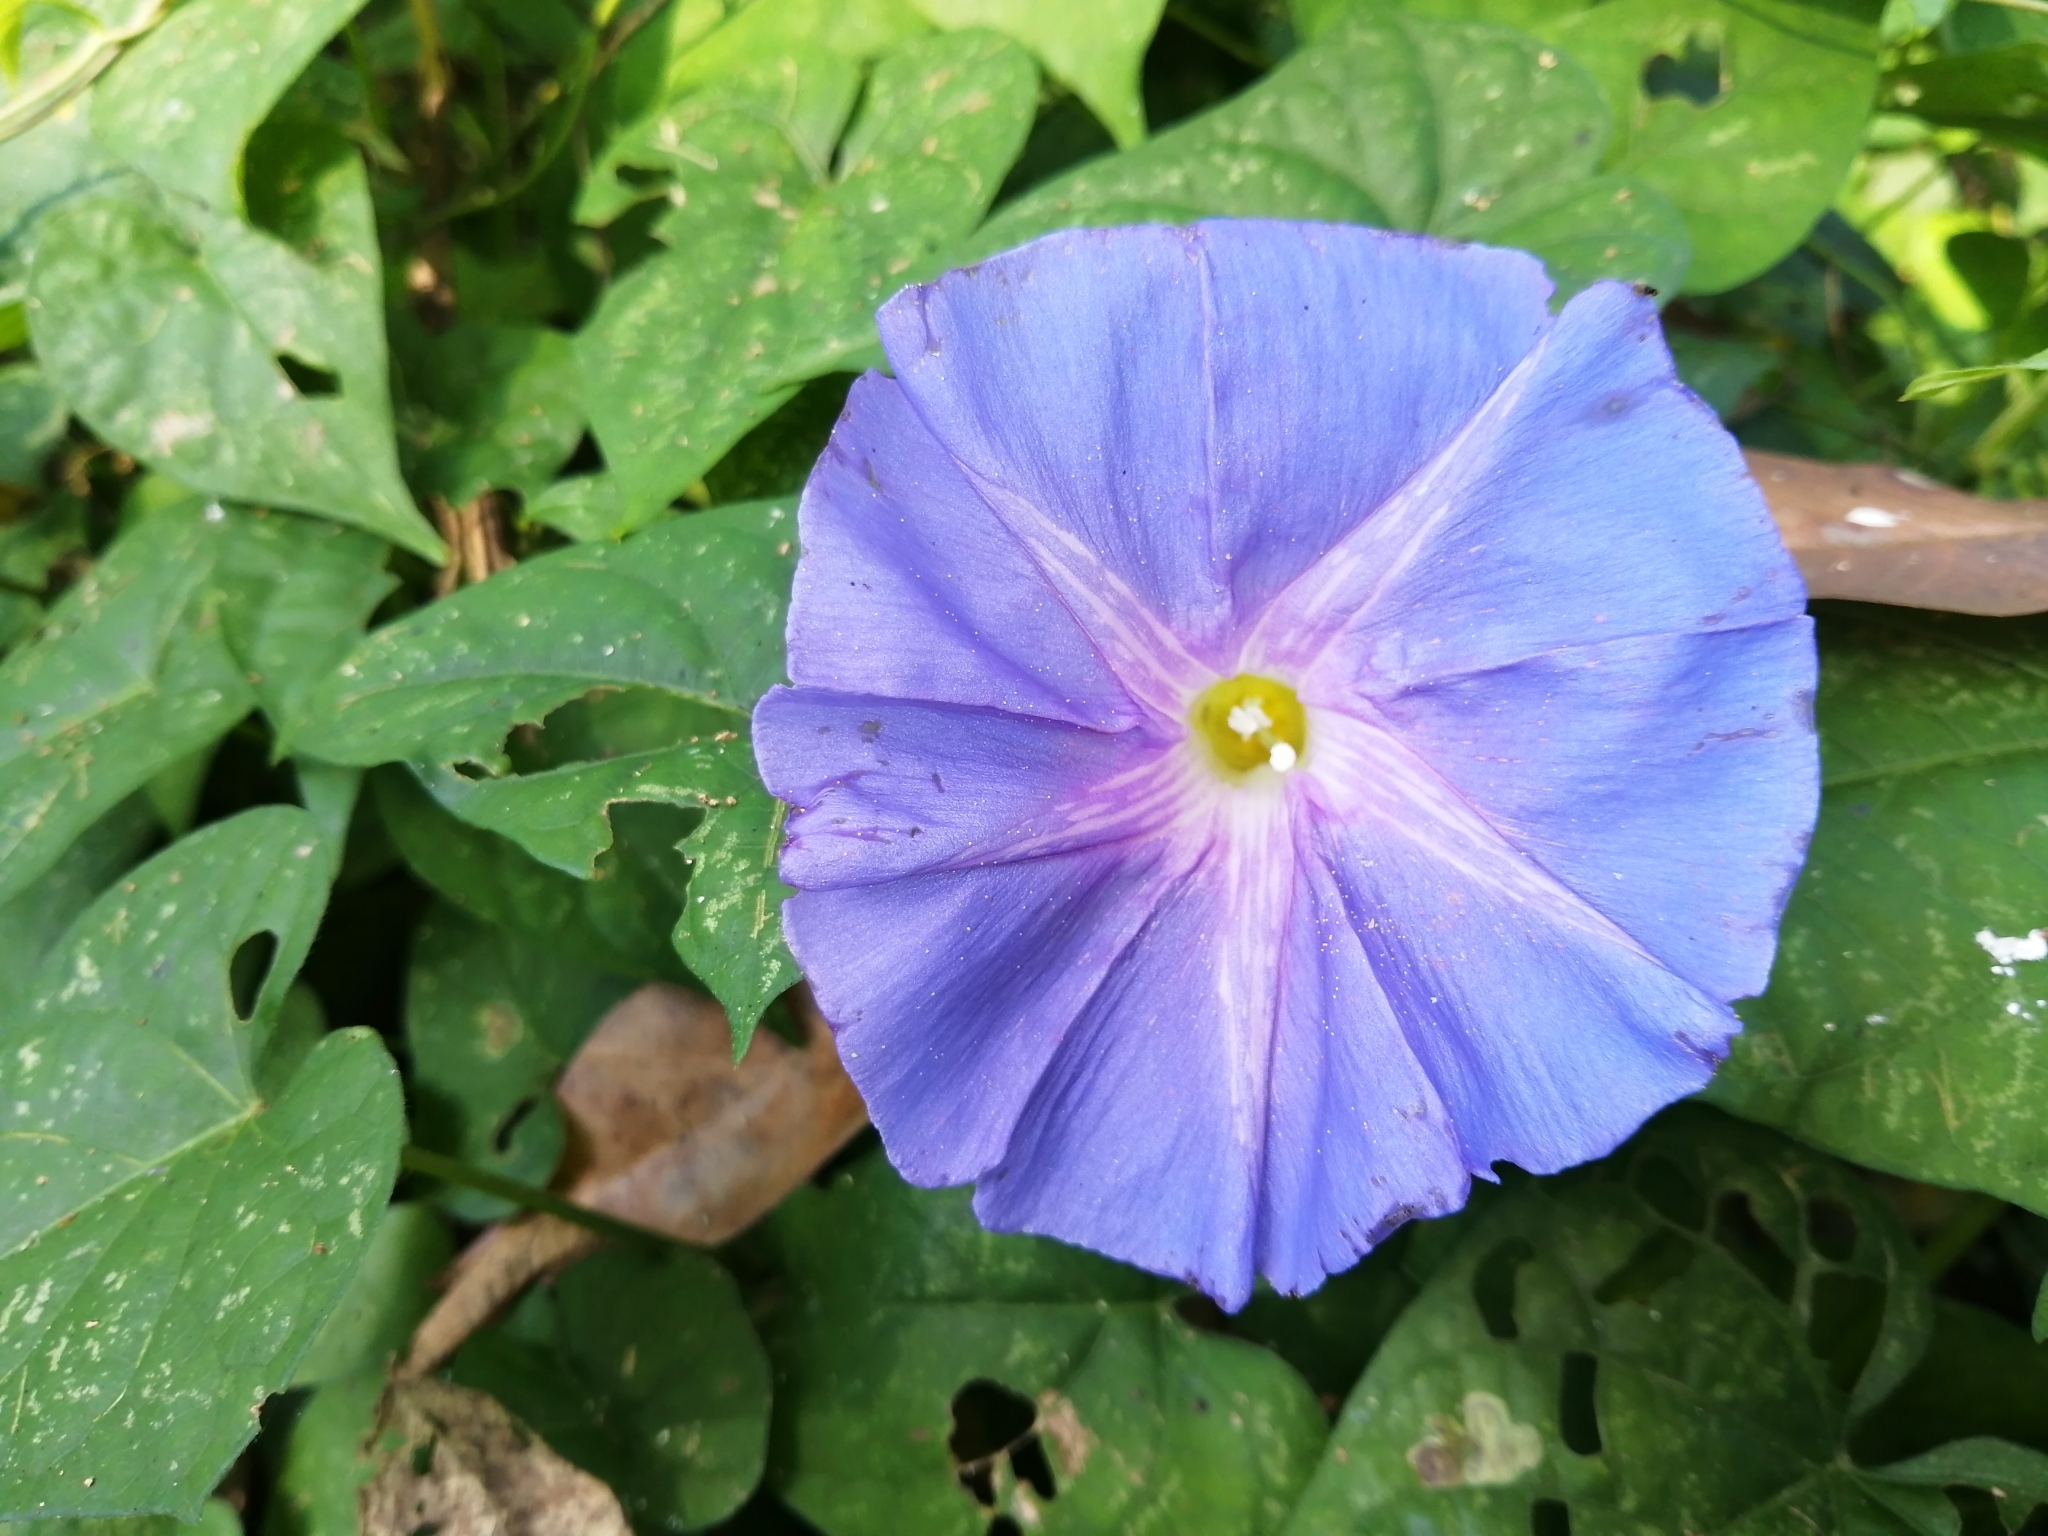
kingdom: Plantae
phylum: Tracheophyta
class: Magnoliopsida
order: Solanales
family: Convolvulaceae
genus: Ipomoea
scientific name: Ipomoea mitchelliae
